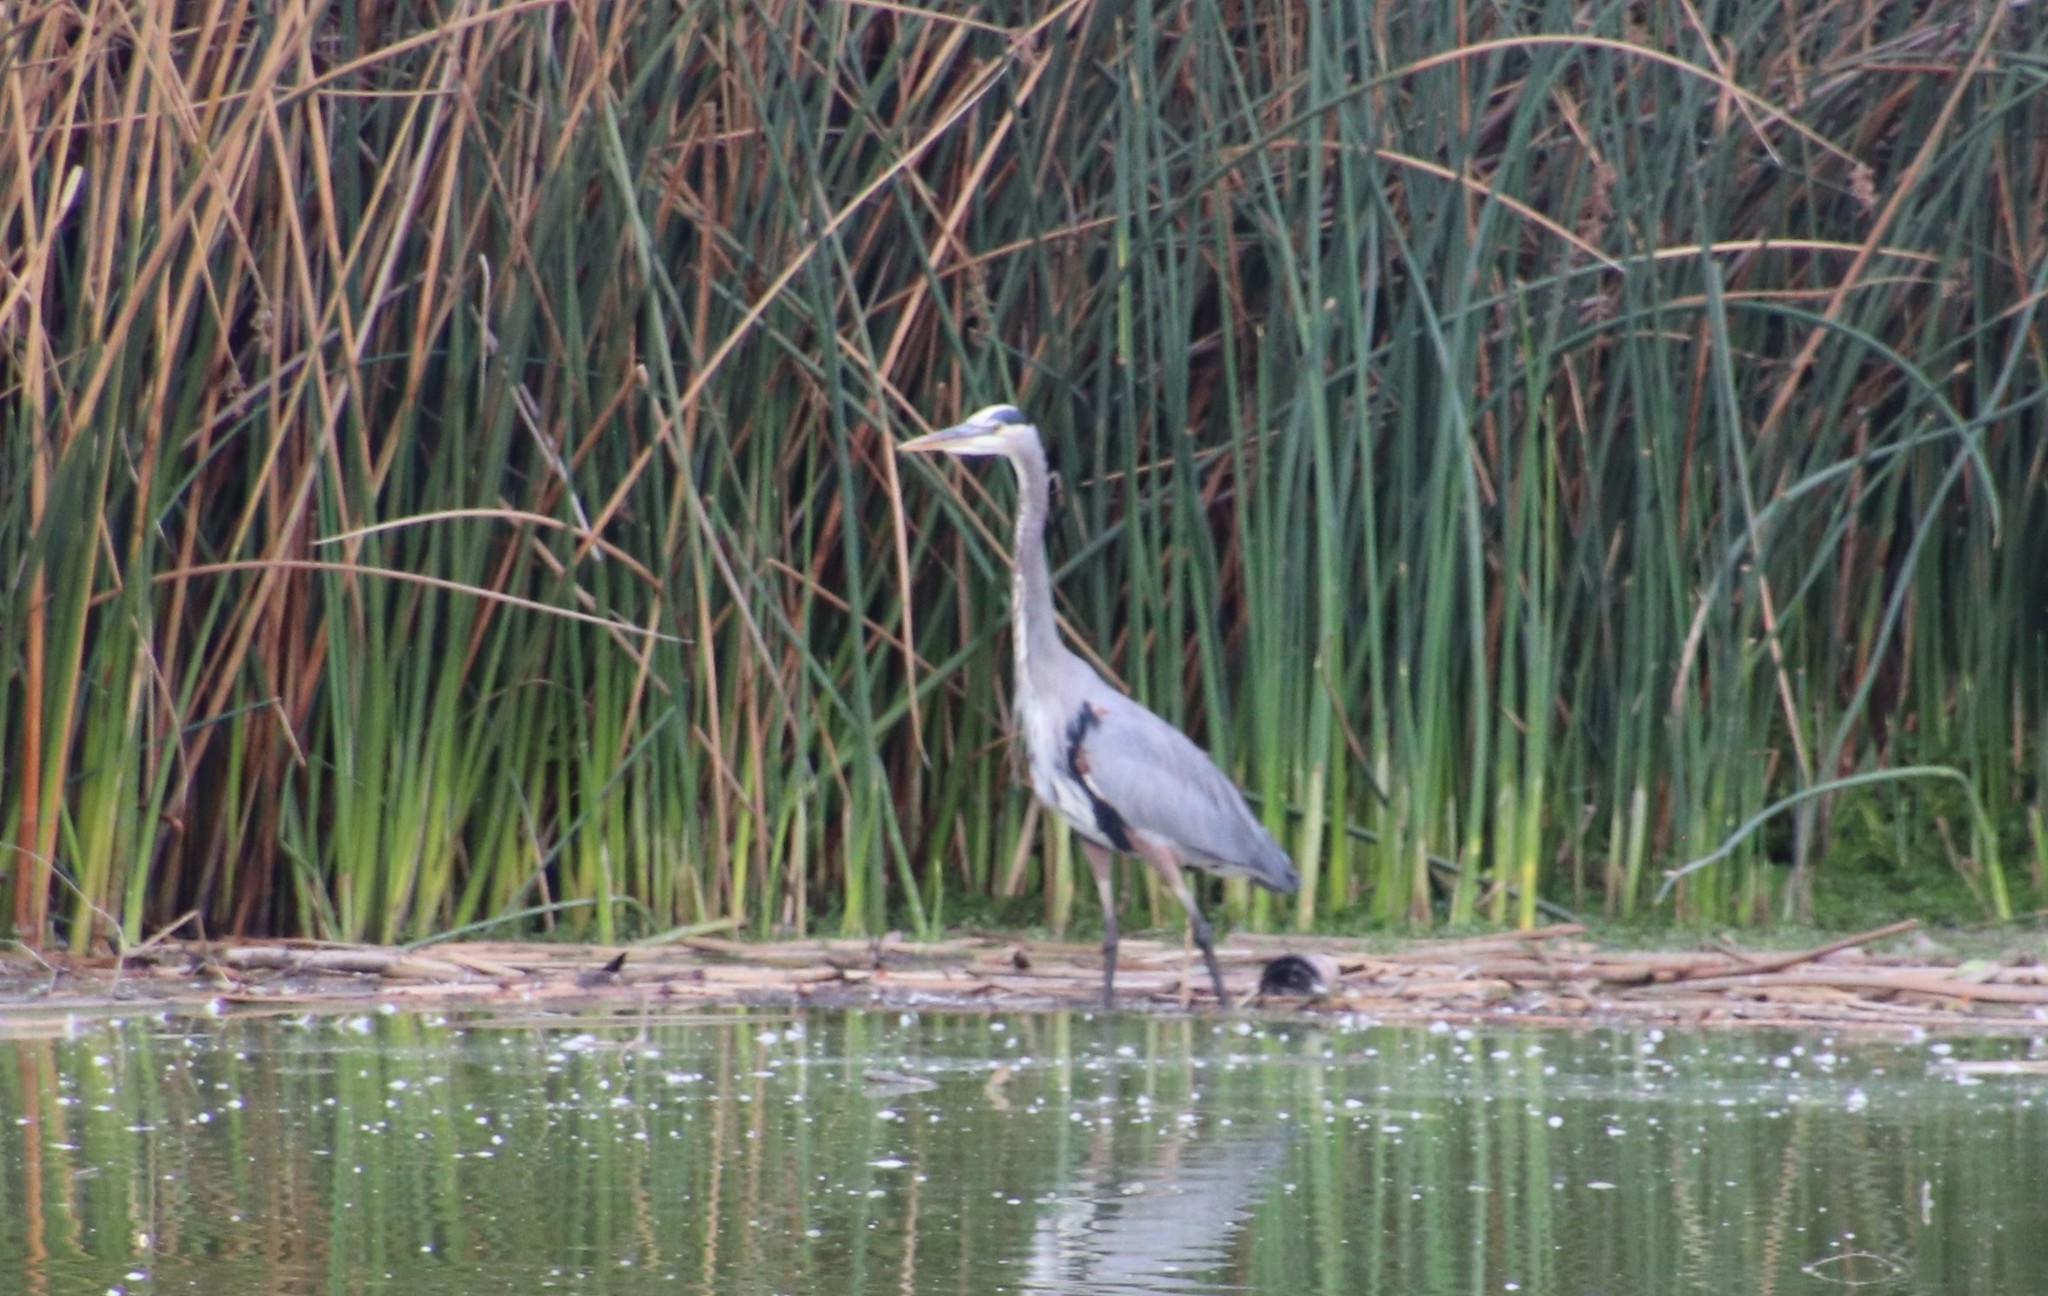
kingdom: Animalia
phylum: Chordata
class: Aves
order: Pelecaniformes
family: Ardeidae
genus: Ardea
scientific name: Ardea herodias
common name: Great blue heron
